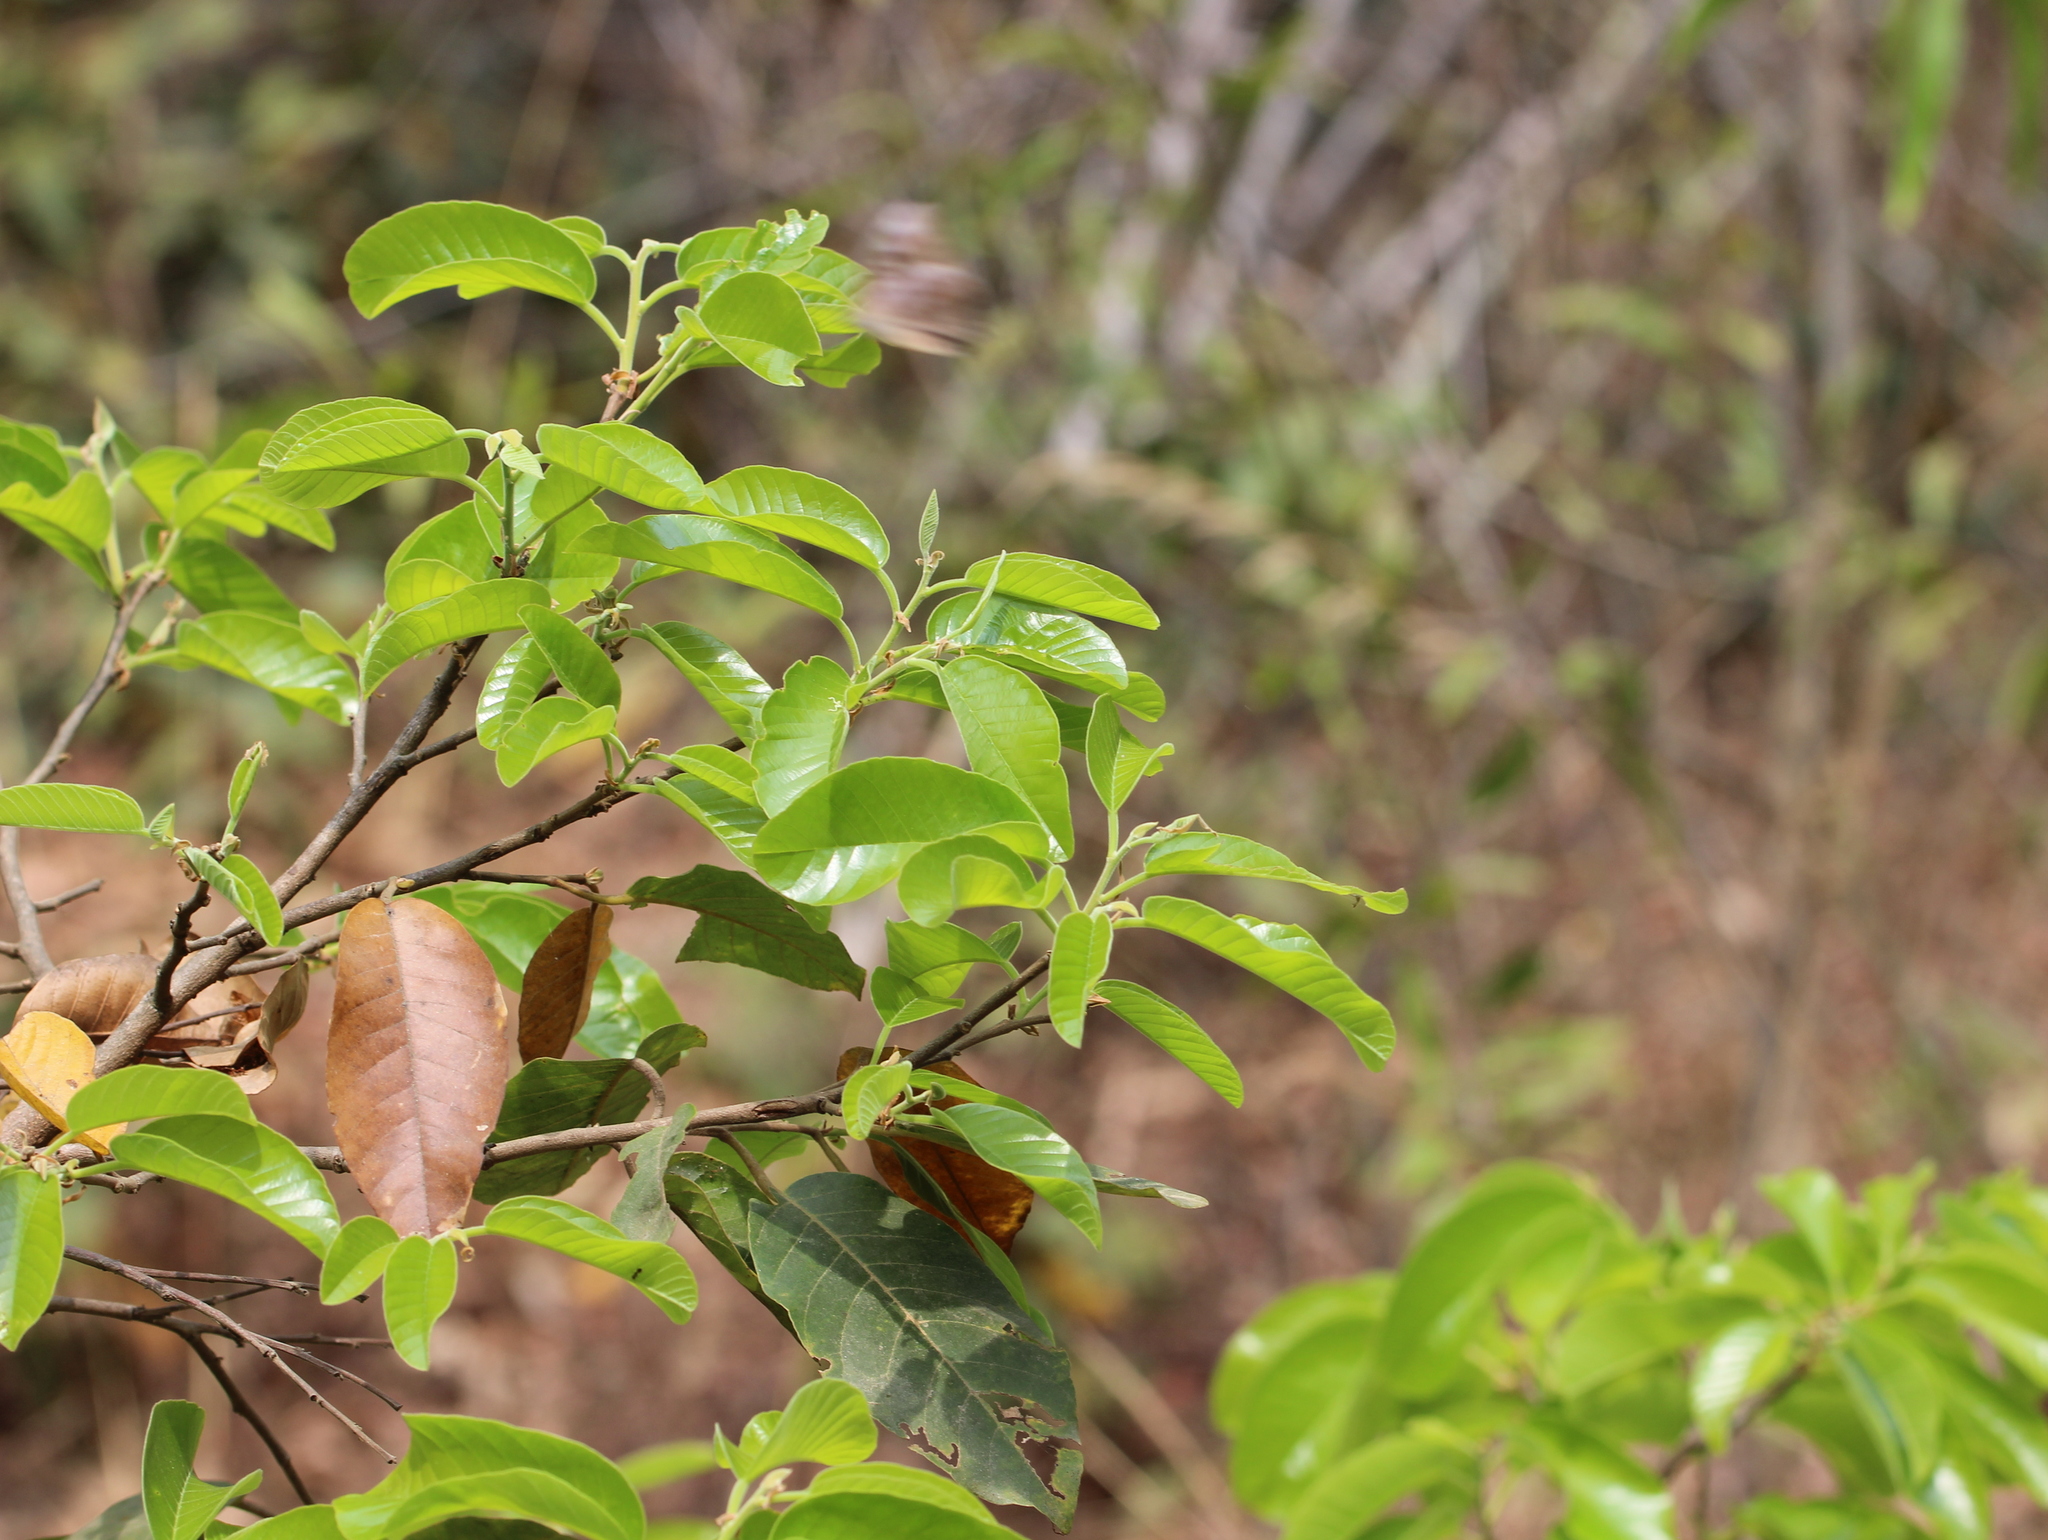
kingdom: Plantae
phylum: Tracheophyta
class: Magnoliopsida
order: Malvales
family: Dipterocarpaceae
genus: Anthoshorea
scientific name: Anthoshorea roxburghii
